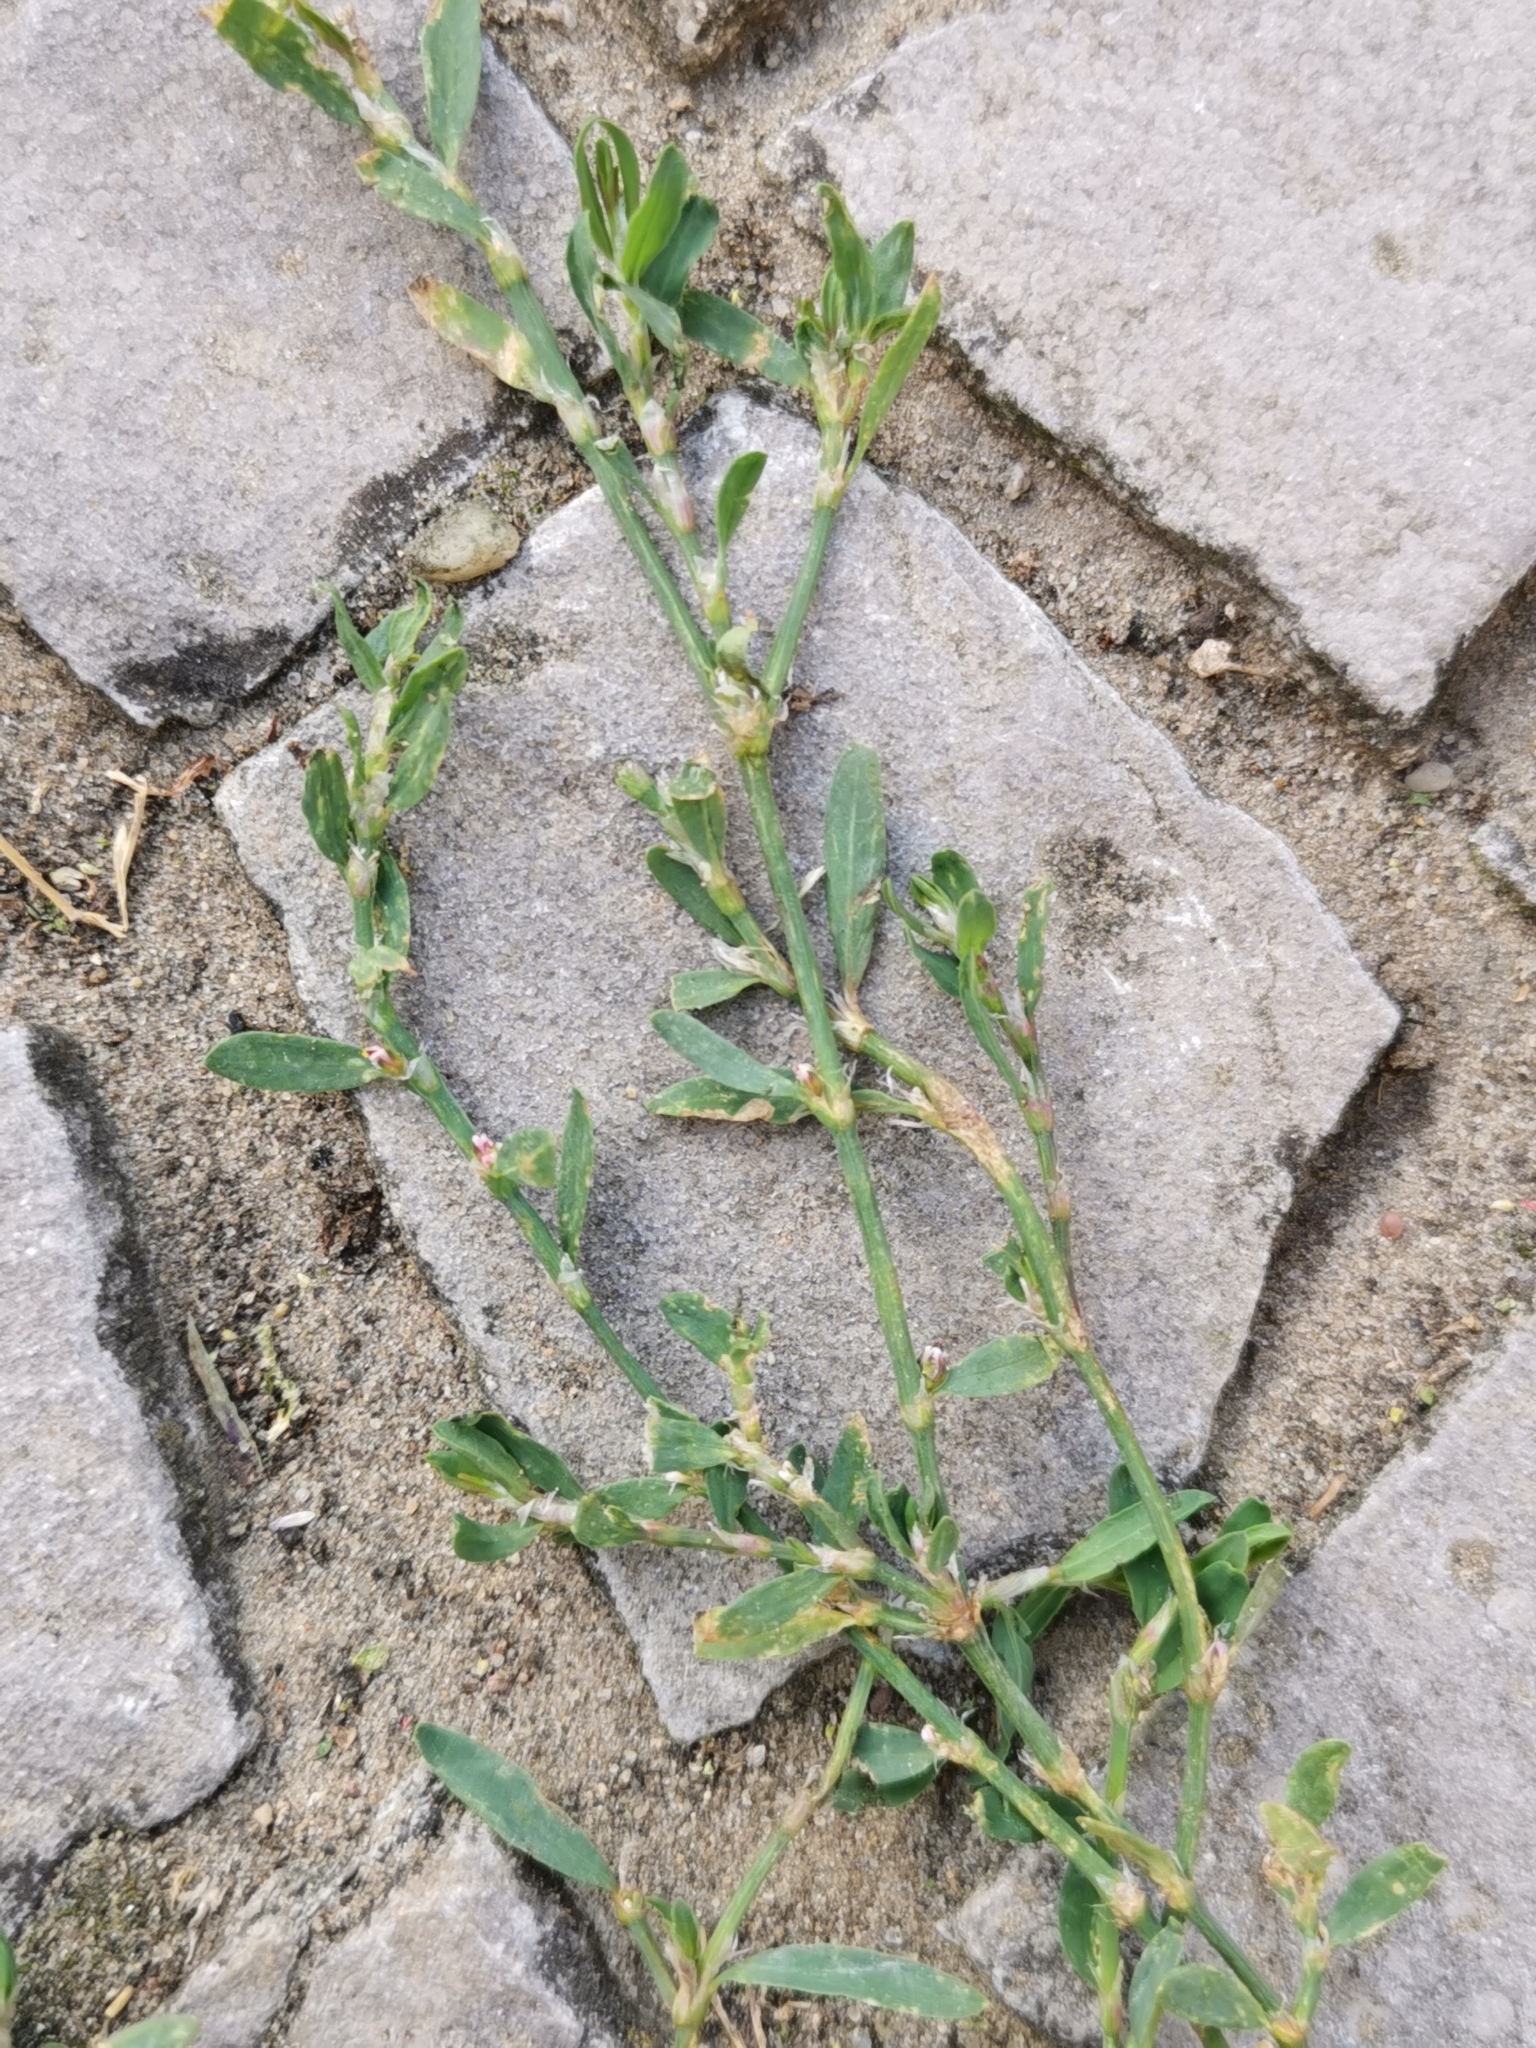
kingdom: Plantae
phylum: Tracheophyta
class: Magnoliopsida
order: Caryophyllales
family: Polygonaceae
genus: Polygonum
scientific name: Polygonum aviculare
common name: Prostrate knotweed
